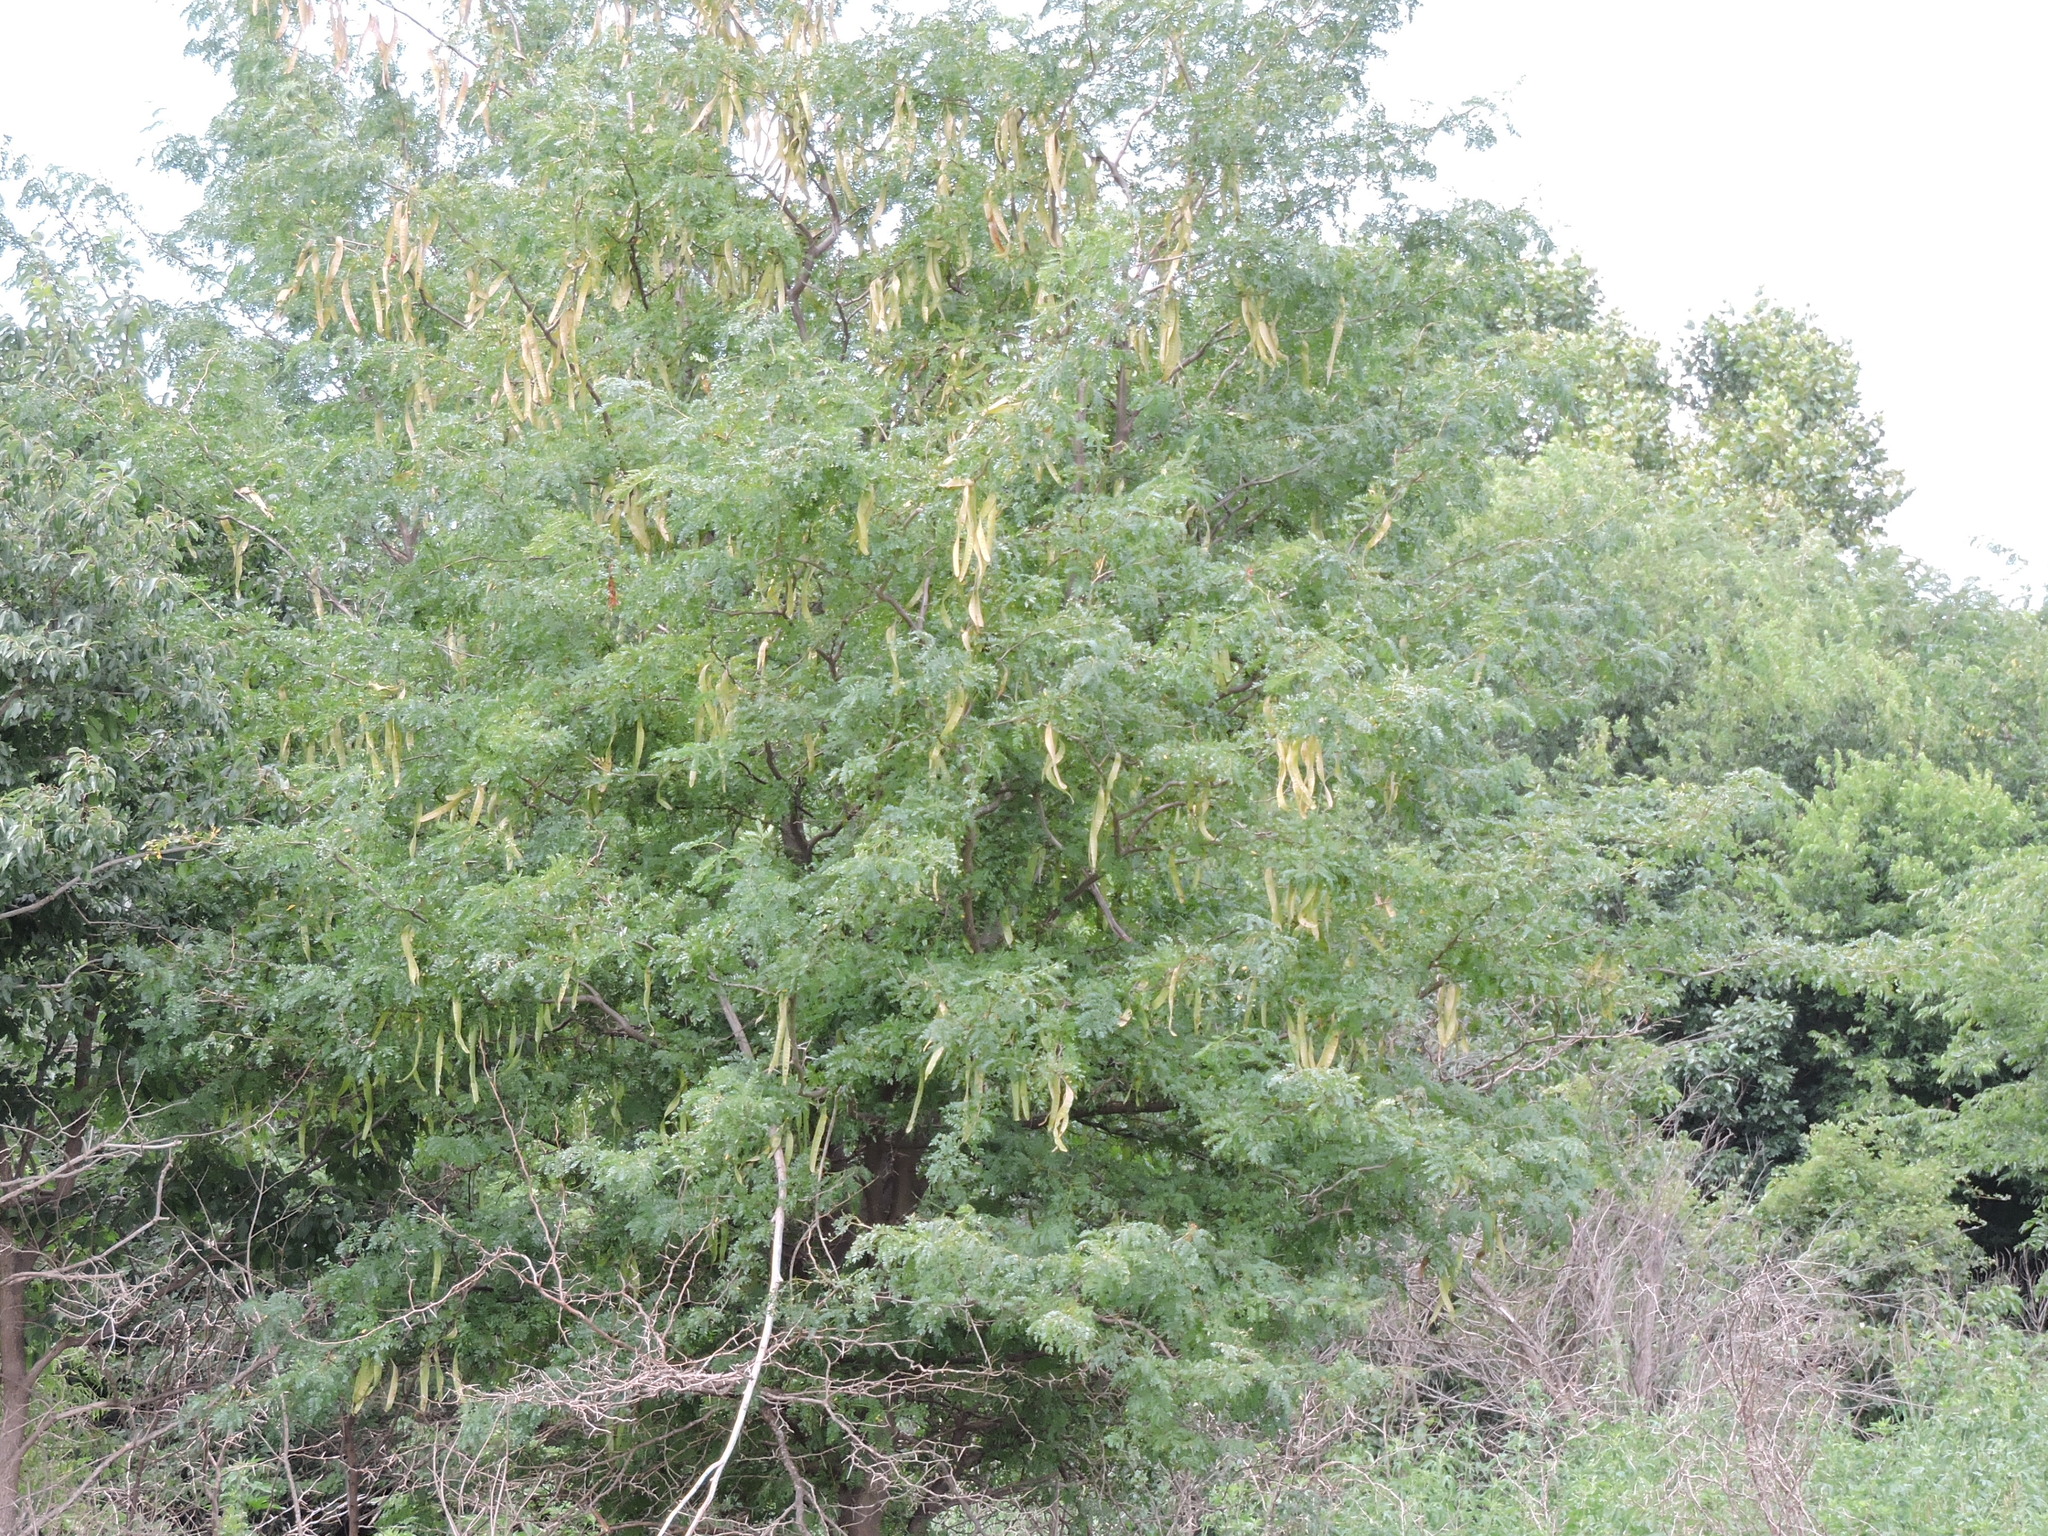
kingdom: Plantae
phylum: Tracheophyta
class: Magnoliopsida
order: Fabales
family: Fabaceae
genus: Gleditsia
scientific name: Gleditsia triacanthos
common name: Common honeylocust
